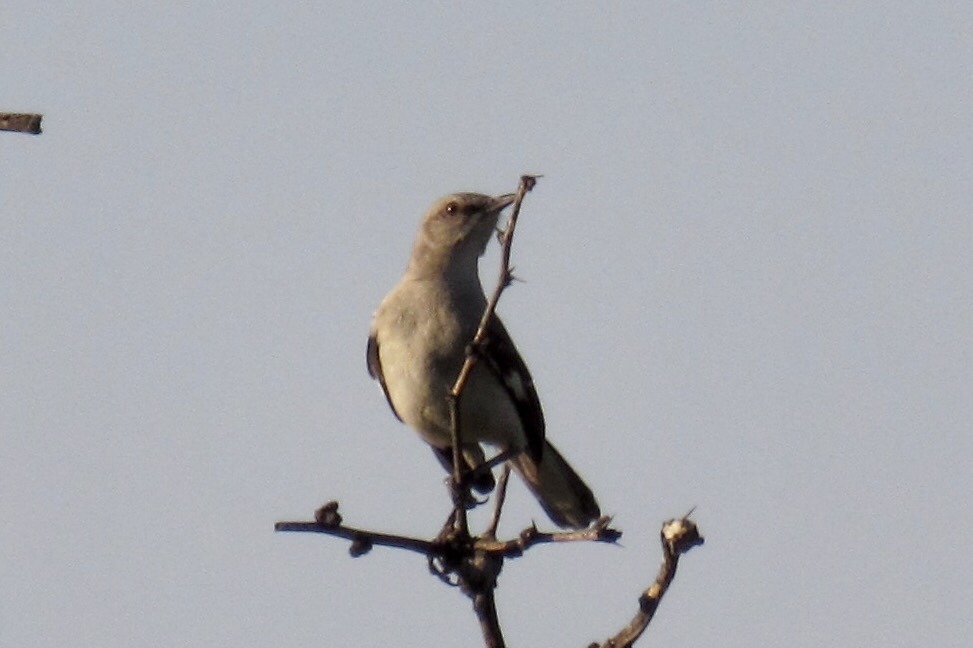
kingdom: Animalia
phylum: Chordata
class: Aves
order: Passeriformes
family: Mimidae
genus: Mimus
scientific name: Mimus polyglottos
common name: Northern mockingbird
